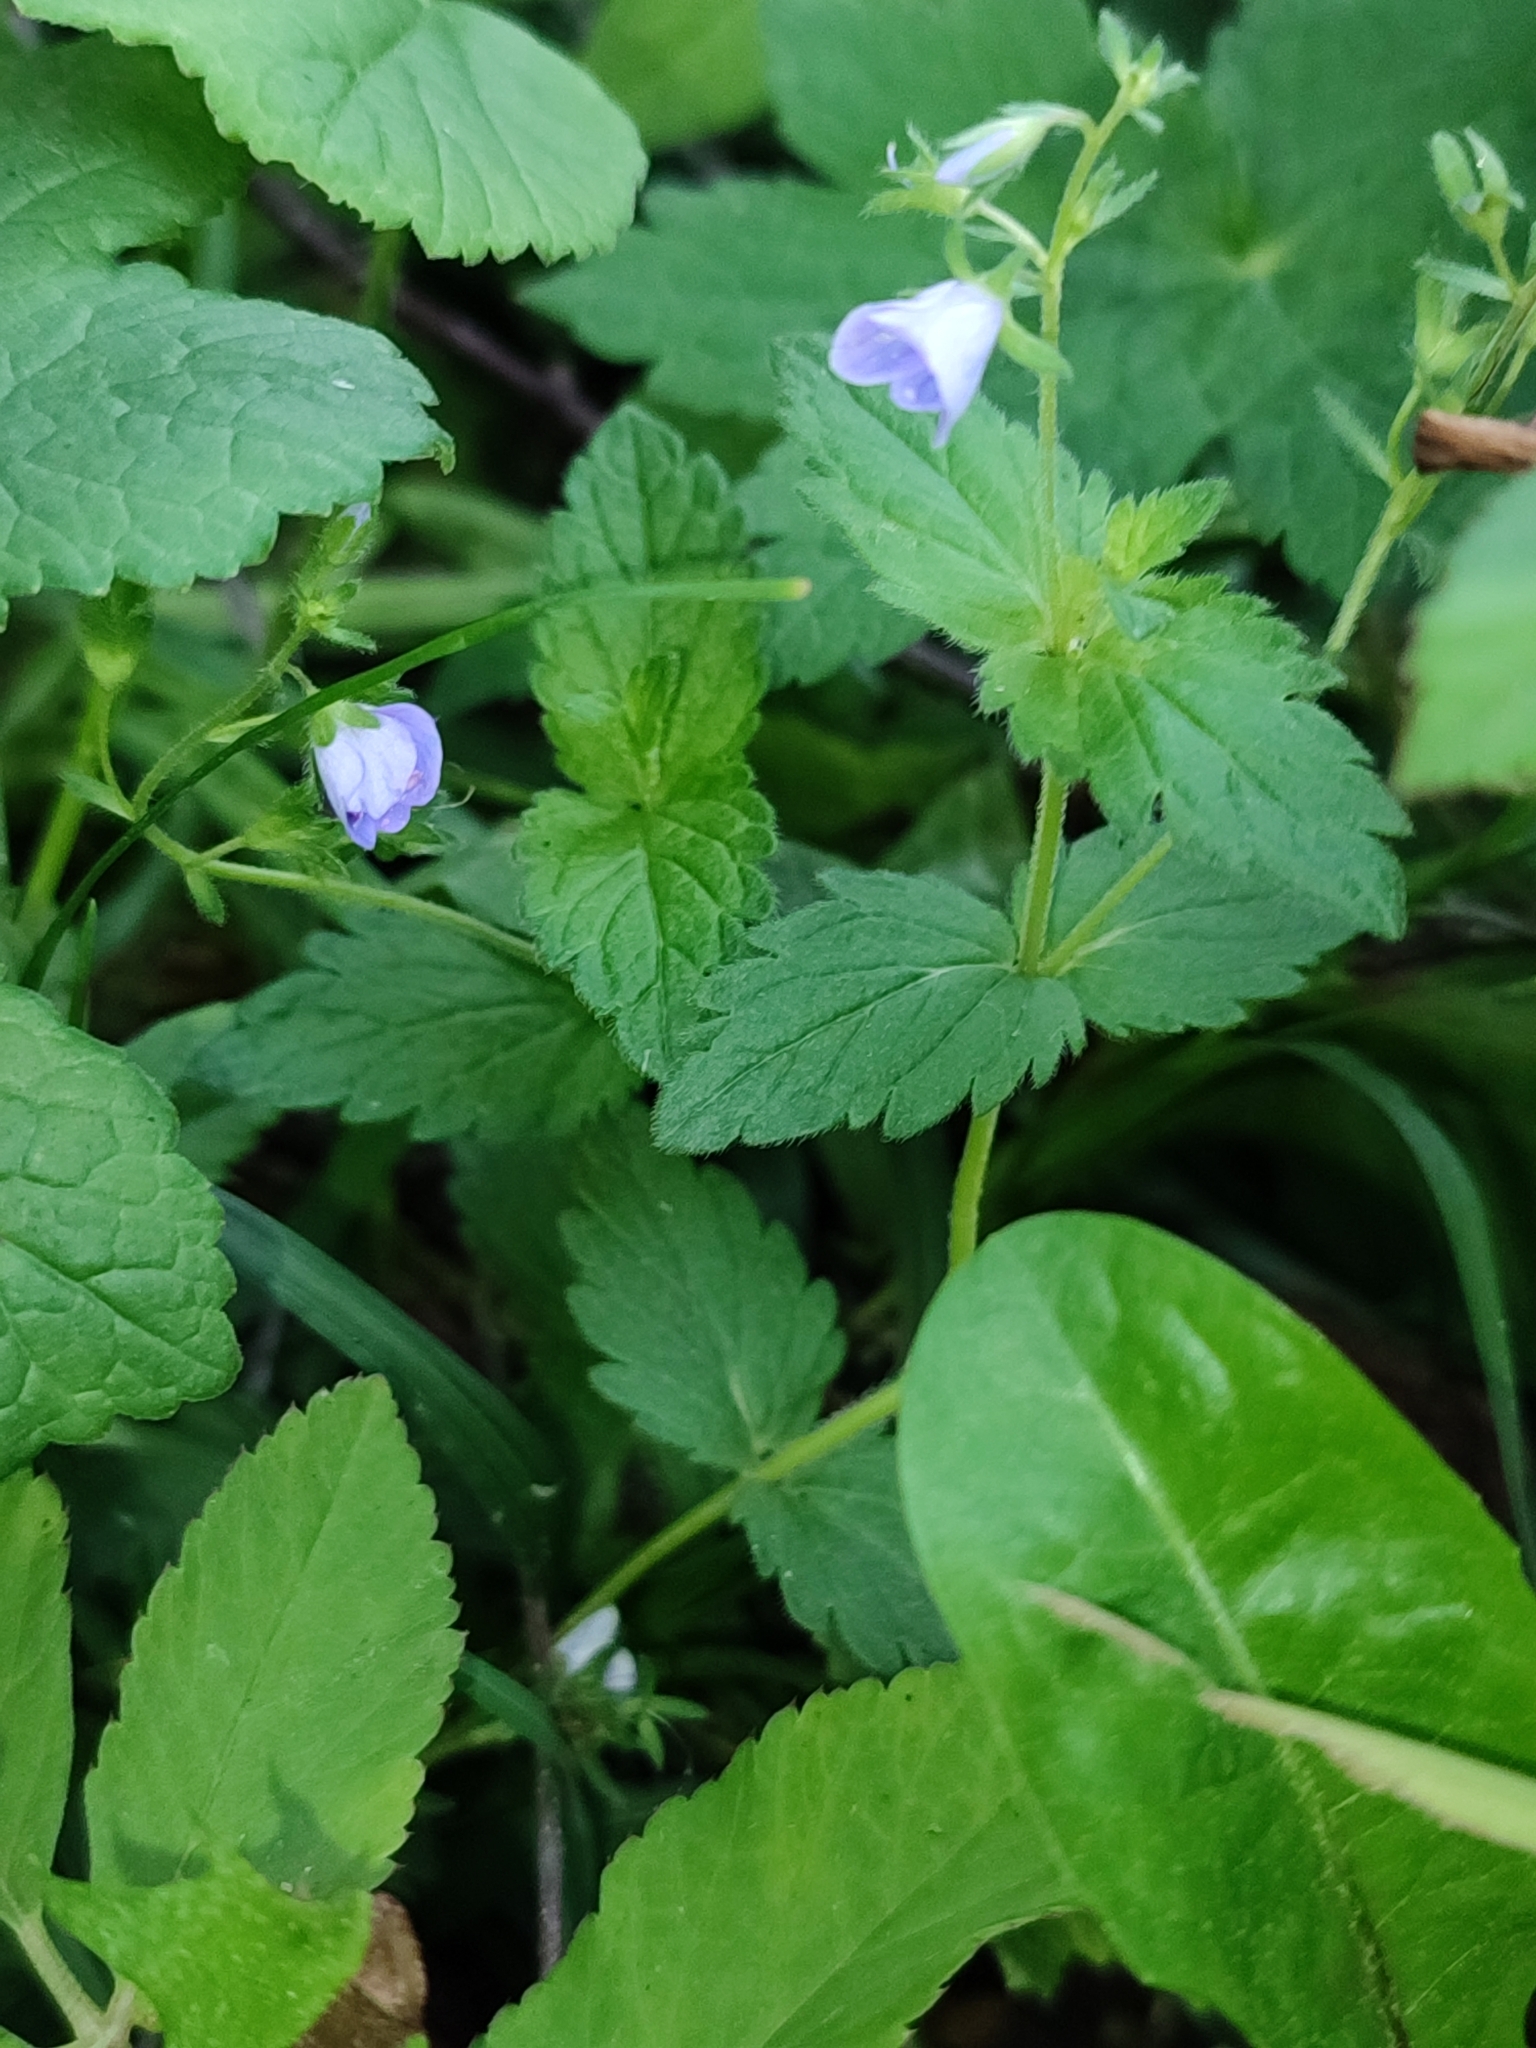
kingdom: Plantae
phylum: Tracheophyta
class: Magnoliopsida
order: Lamiales
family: Plantaginaceae
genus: Veronica
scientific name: Veronica chamaedrys
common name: Germander speedwell
